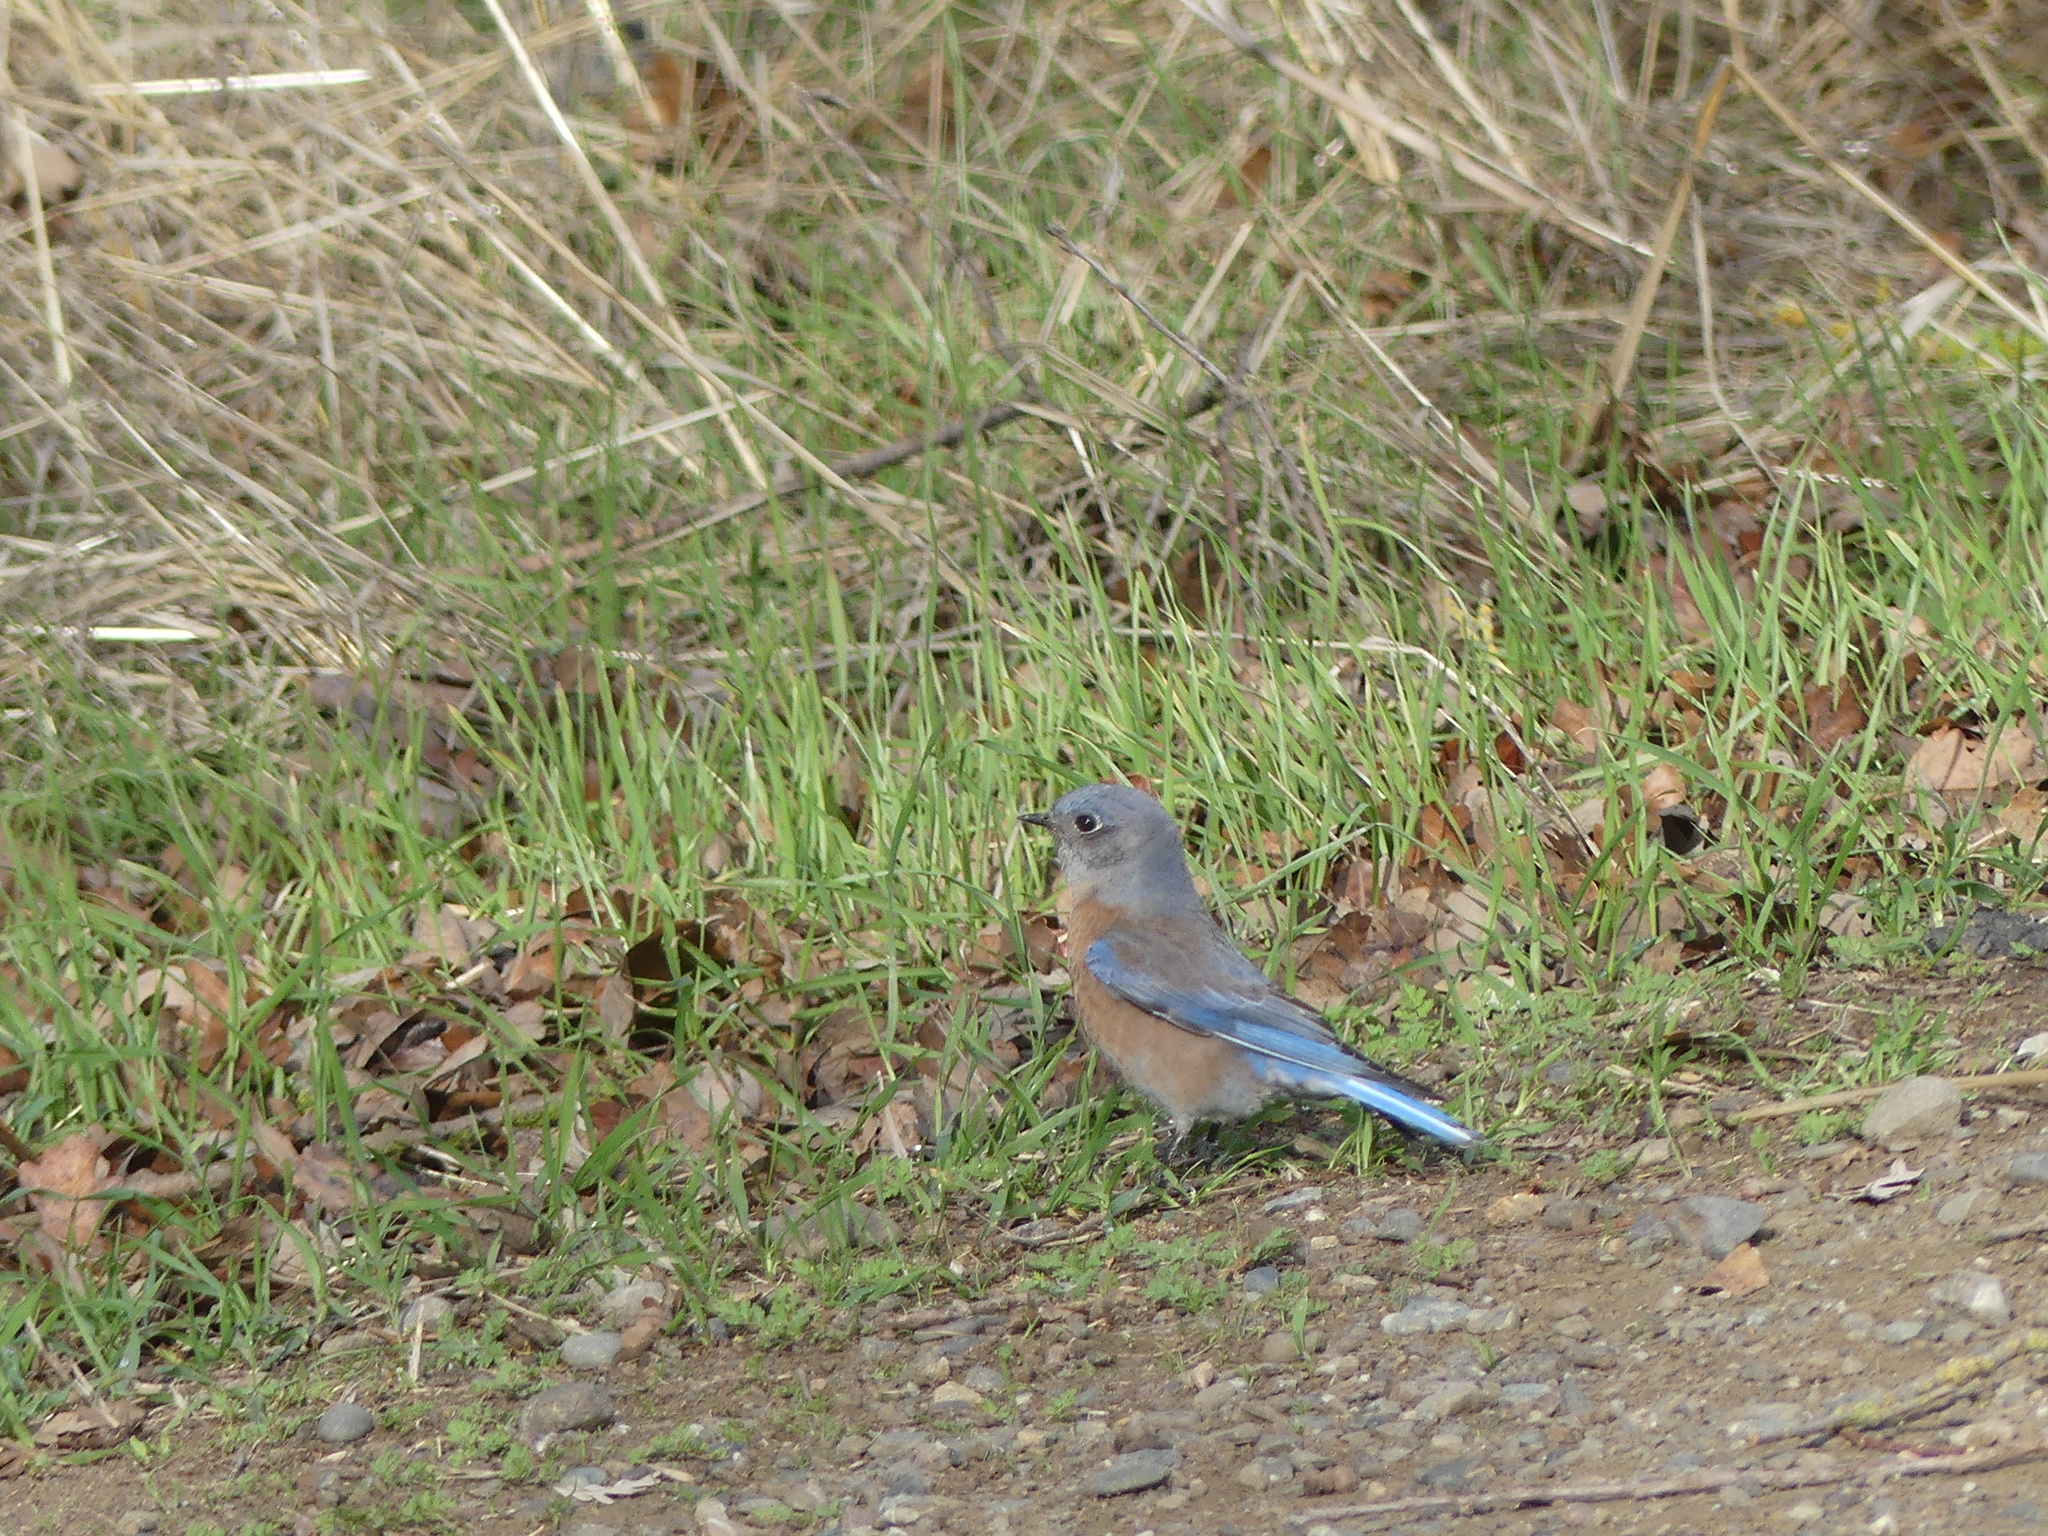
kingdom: Animalia
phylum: Chordata
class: Aves
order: Passeriformes
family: Turdidae
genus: Sialia
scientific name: Sialia mexicana
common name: Western bluebird
